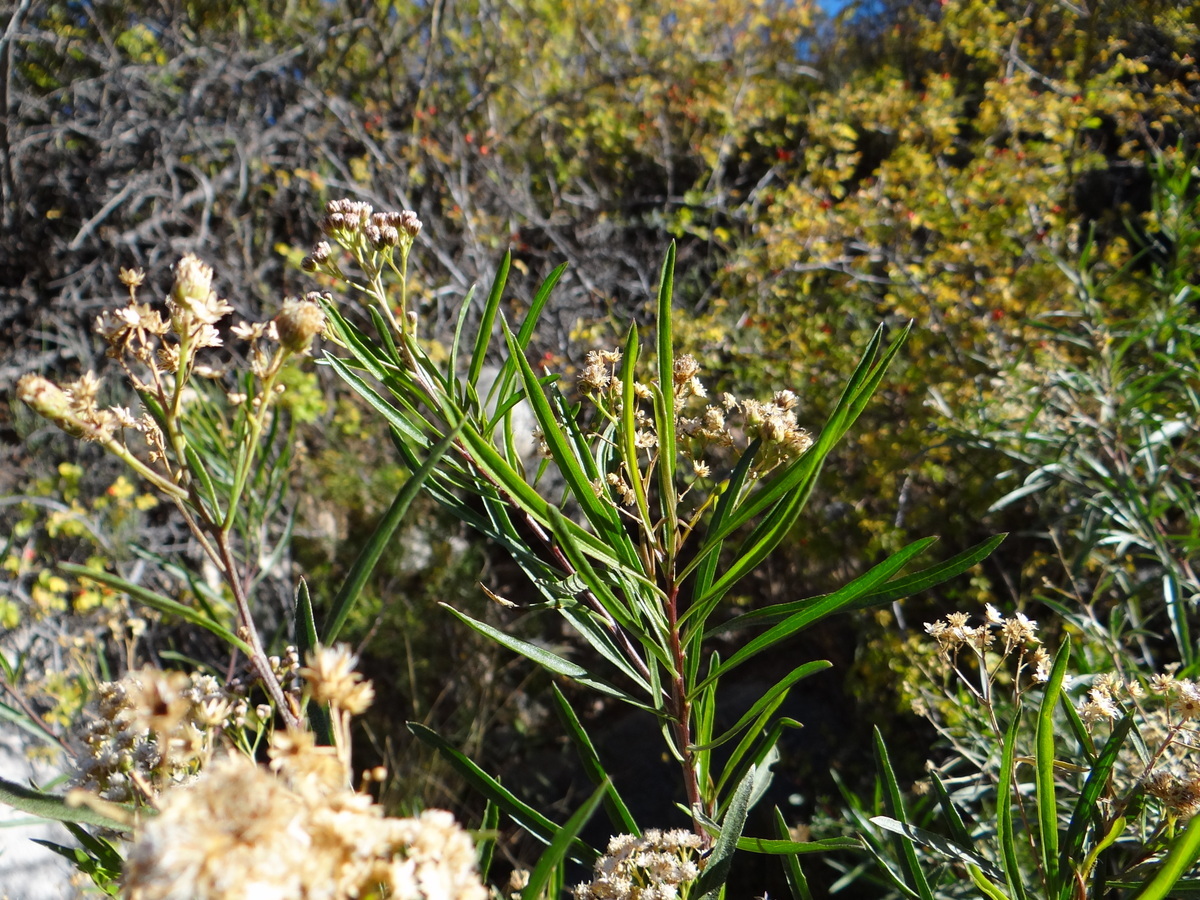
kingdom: Plantae
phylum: Tracheophyta
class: Magnoliopsida
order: Asterales
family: Asteraceae
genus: Baccharis
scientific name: Baccharis salicifolia
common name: Sticky baccharis
